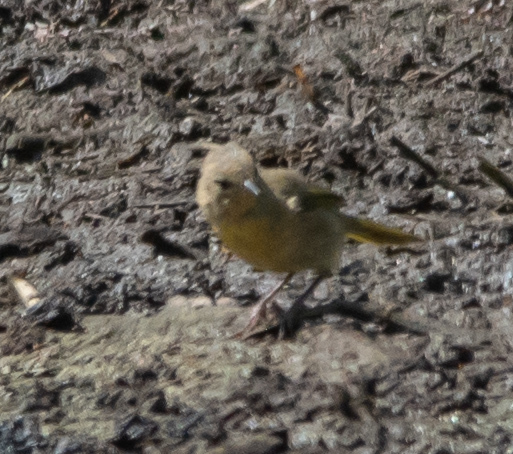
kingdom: Animalia
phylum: Chordata
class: Aves
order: Passeriformes
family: Parulidae
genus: Geothlypis
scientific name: Geothlypis trichas
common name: Common yellowthroat
